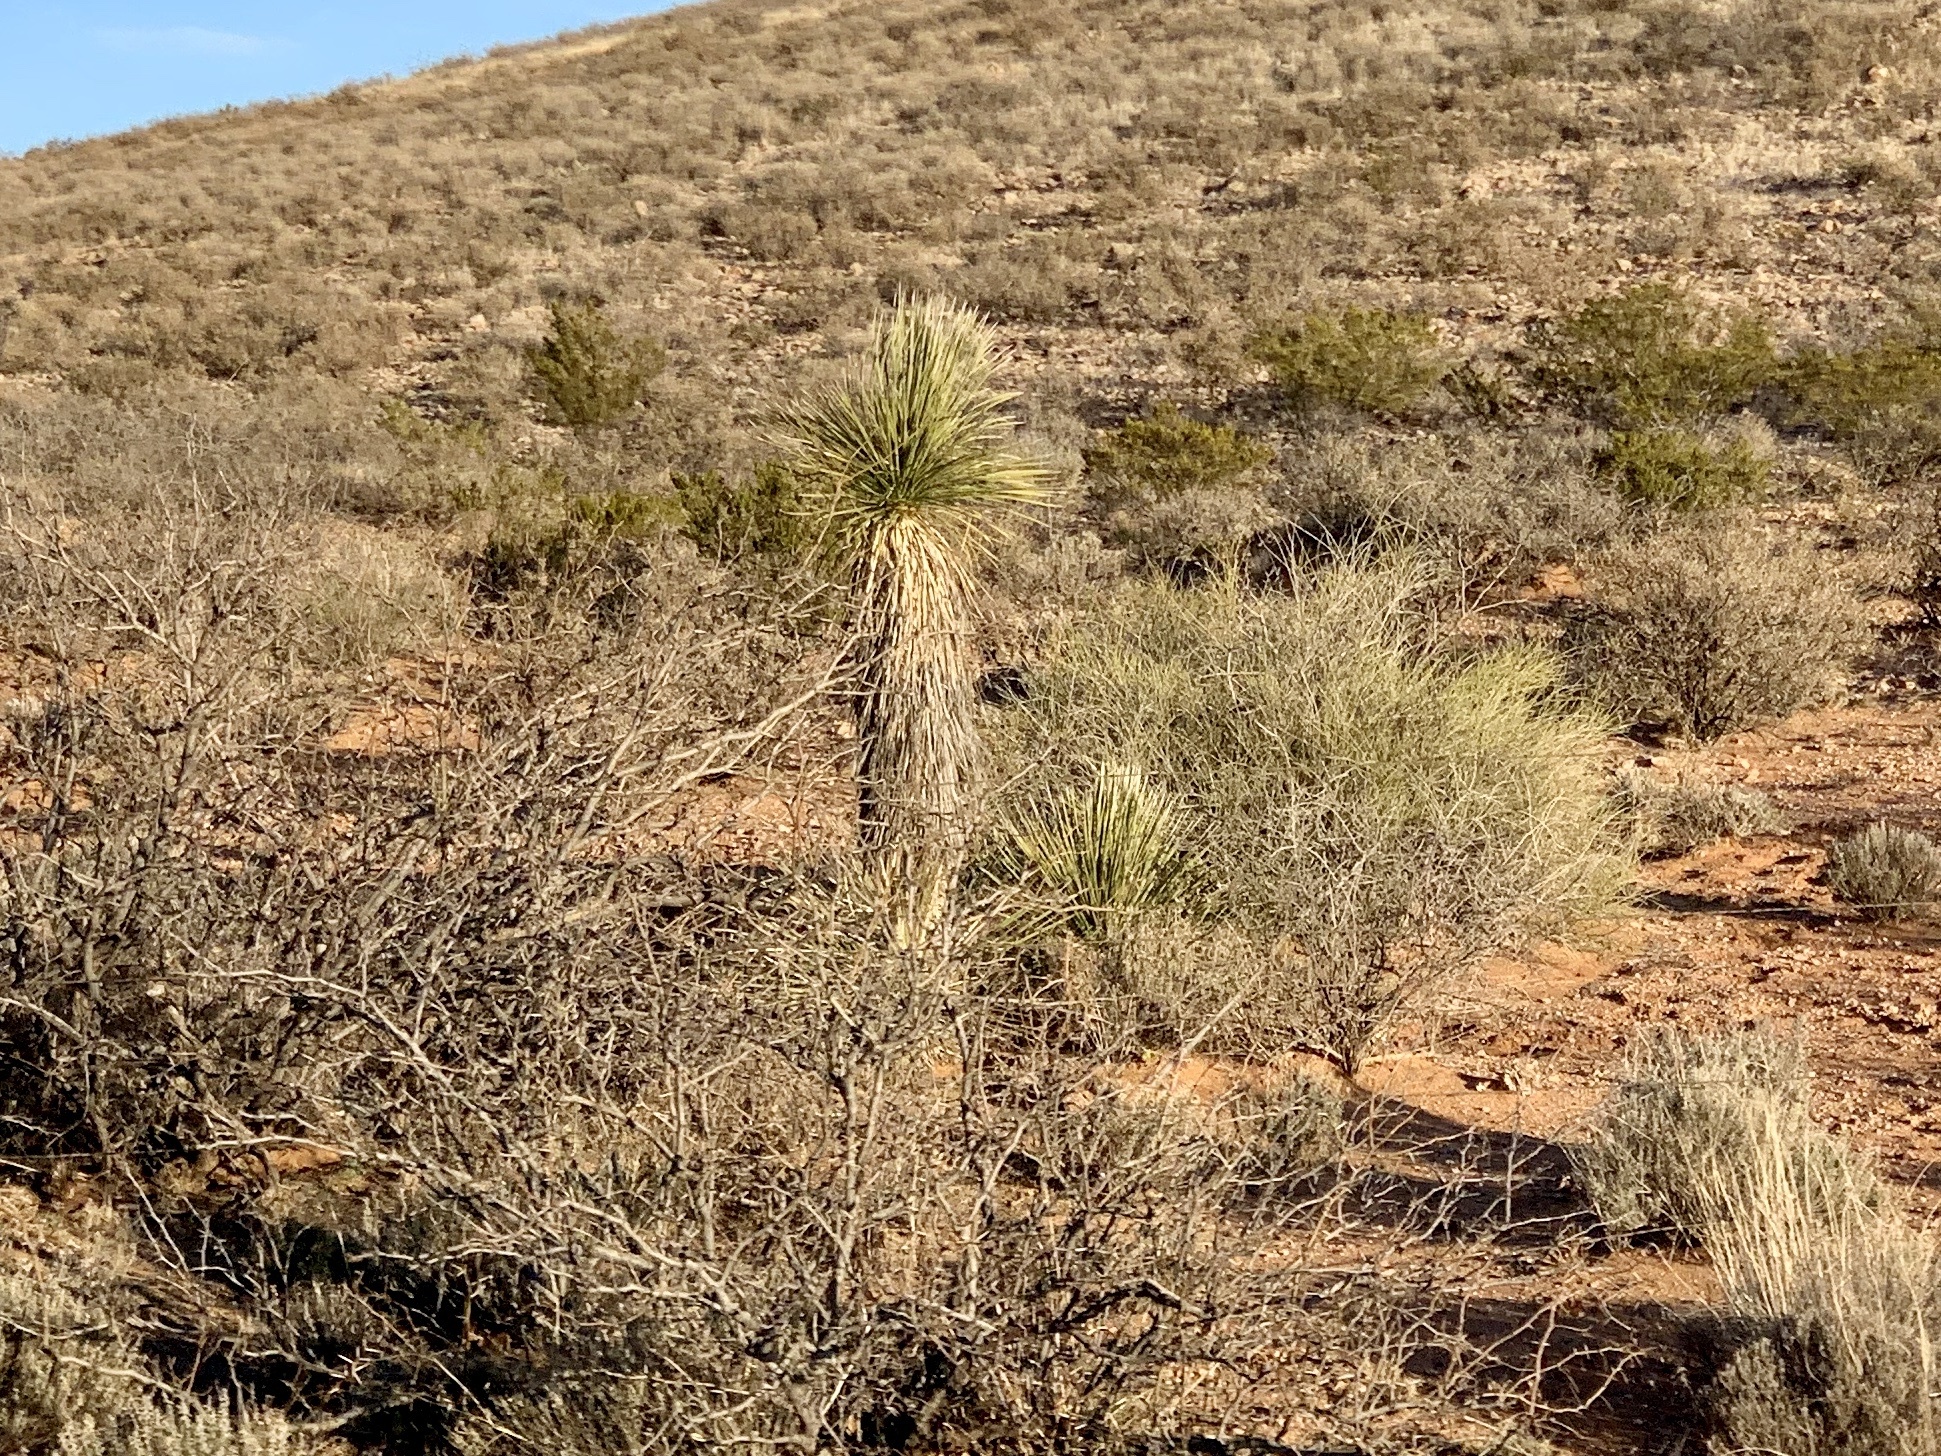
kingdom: Plantae
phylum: Tracheophyta
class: Liliopsida
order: Asparagales
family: Asparagaceae
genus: Yucca
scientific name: Yucca elata
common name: Palmella
